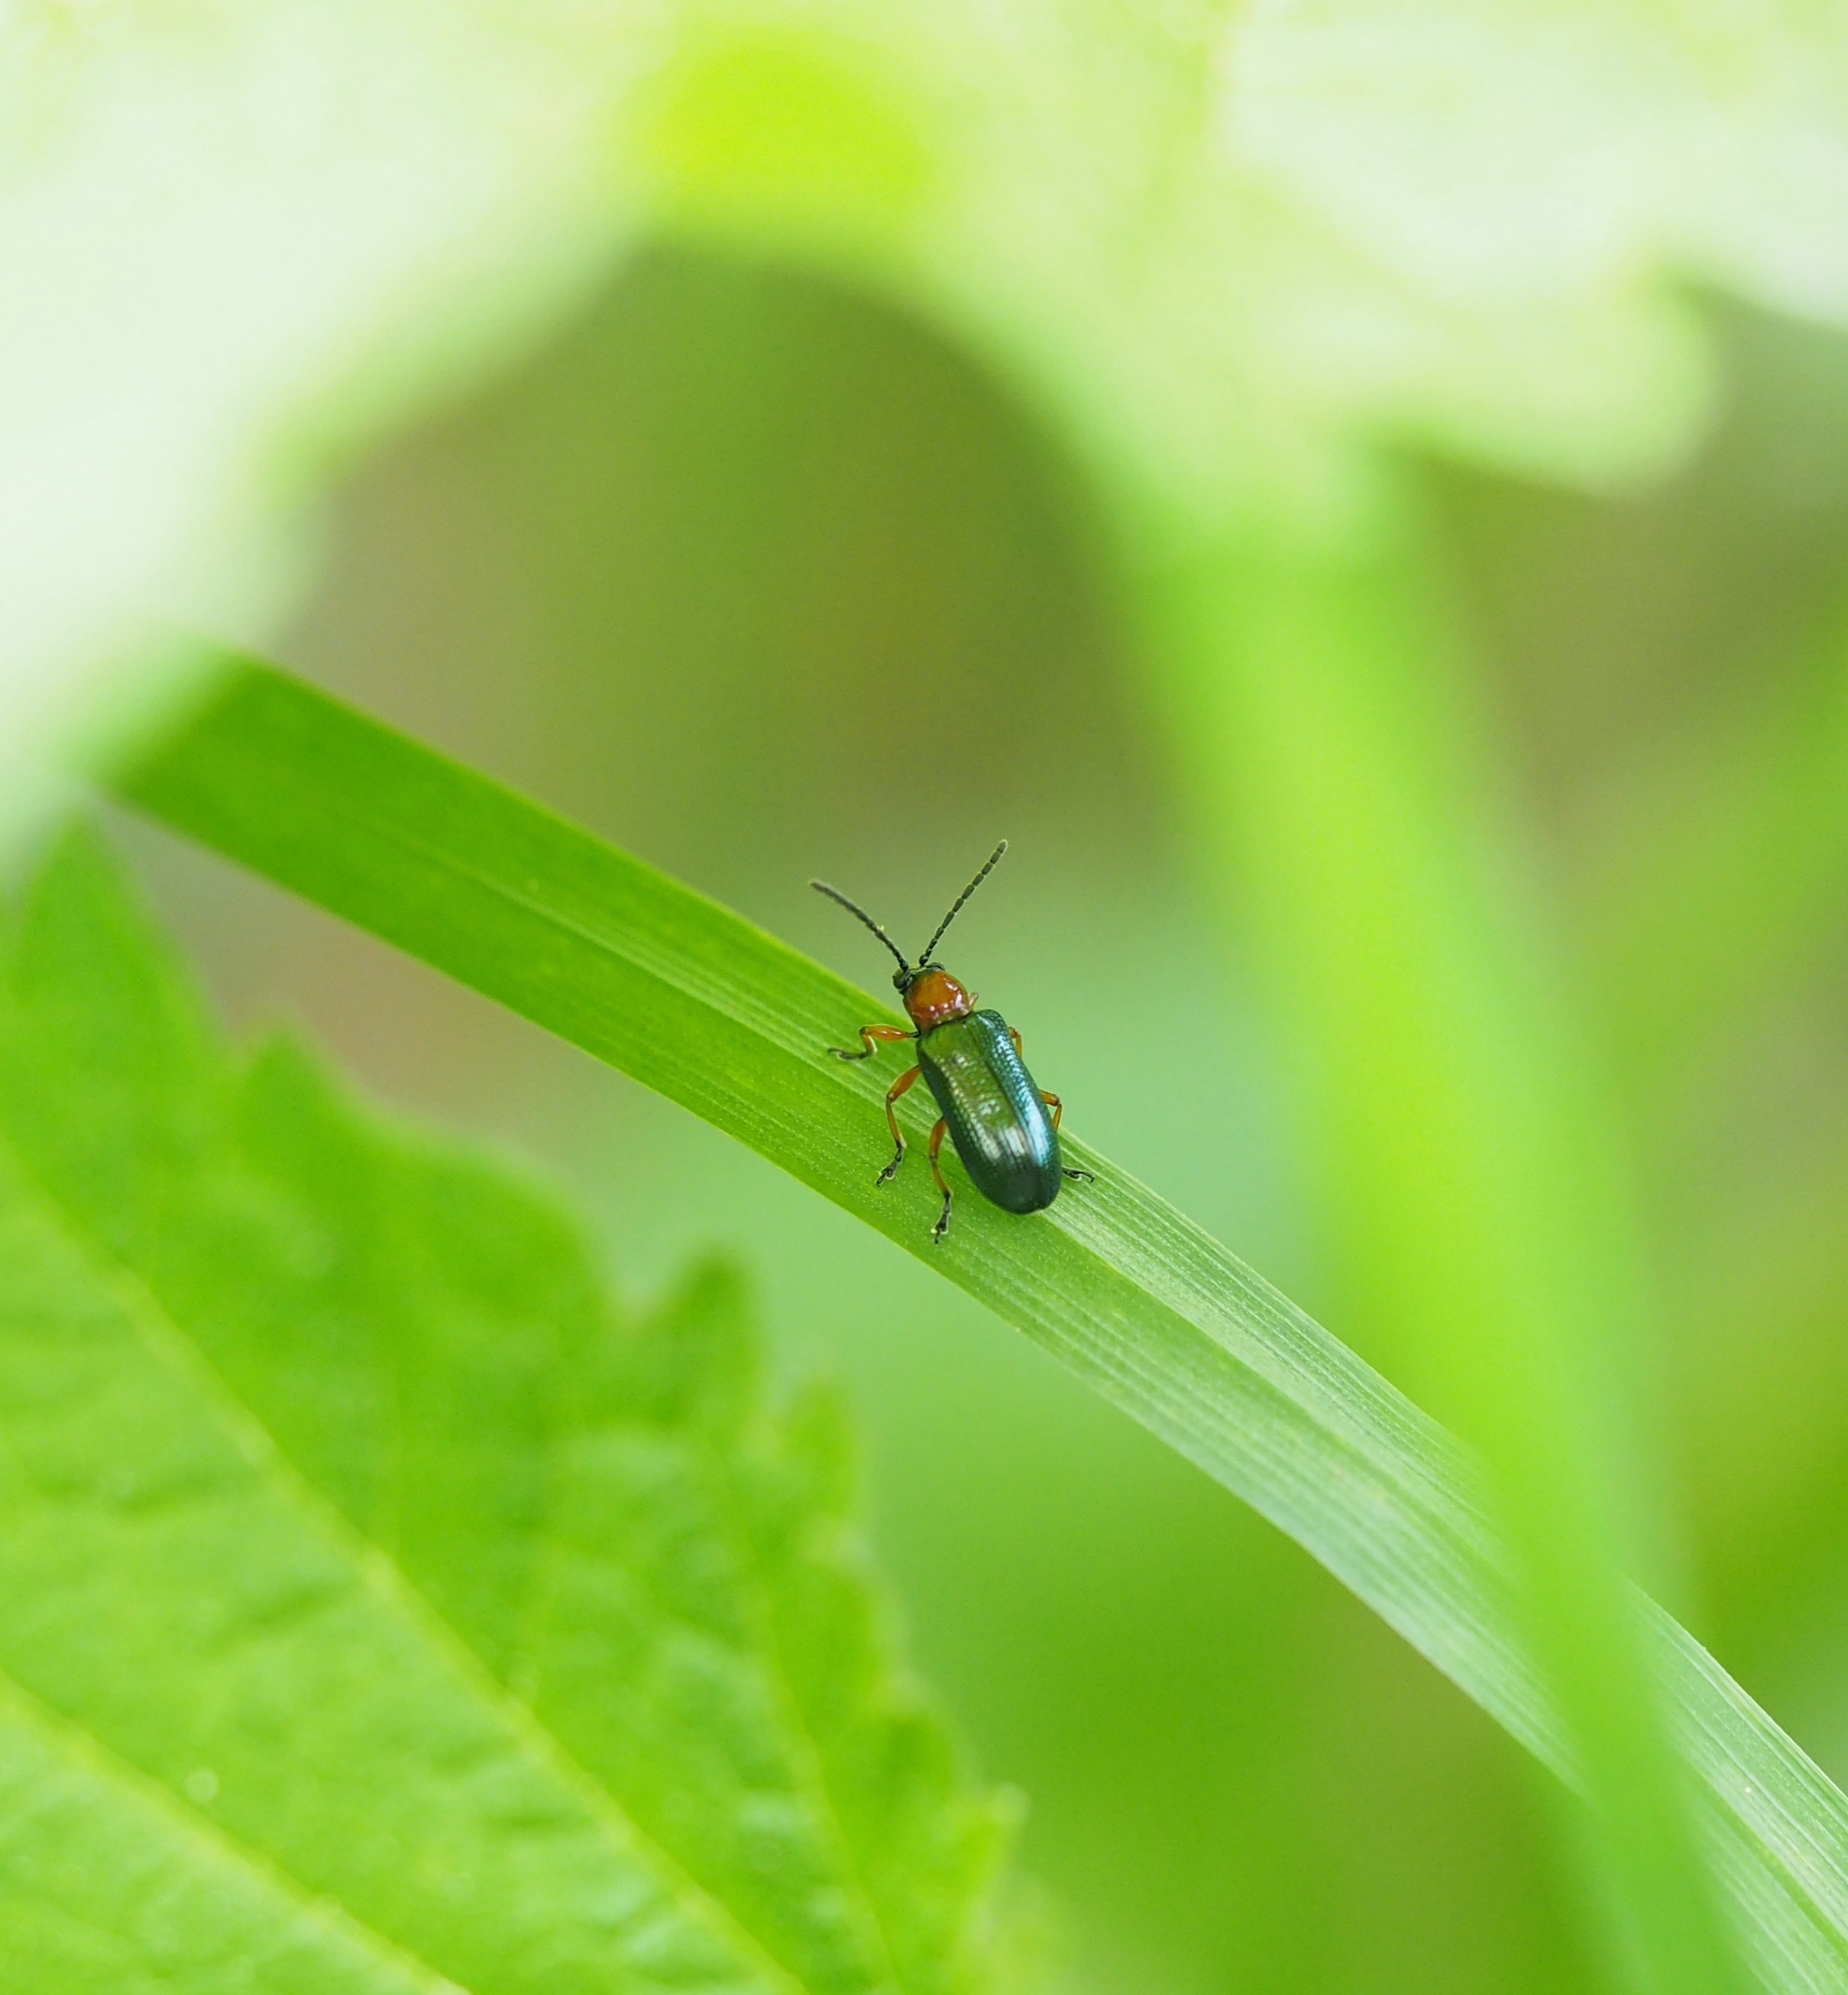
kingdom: Animalia
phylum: Arthropoda
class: Insecta
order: Coleoptera
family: Chrysomelidae
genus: Oulema
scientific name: Oulema
